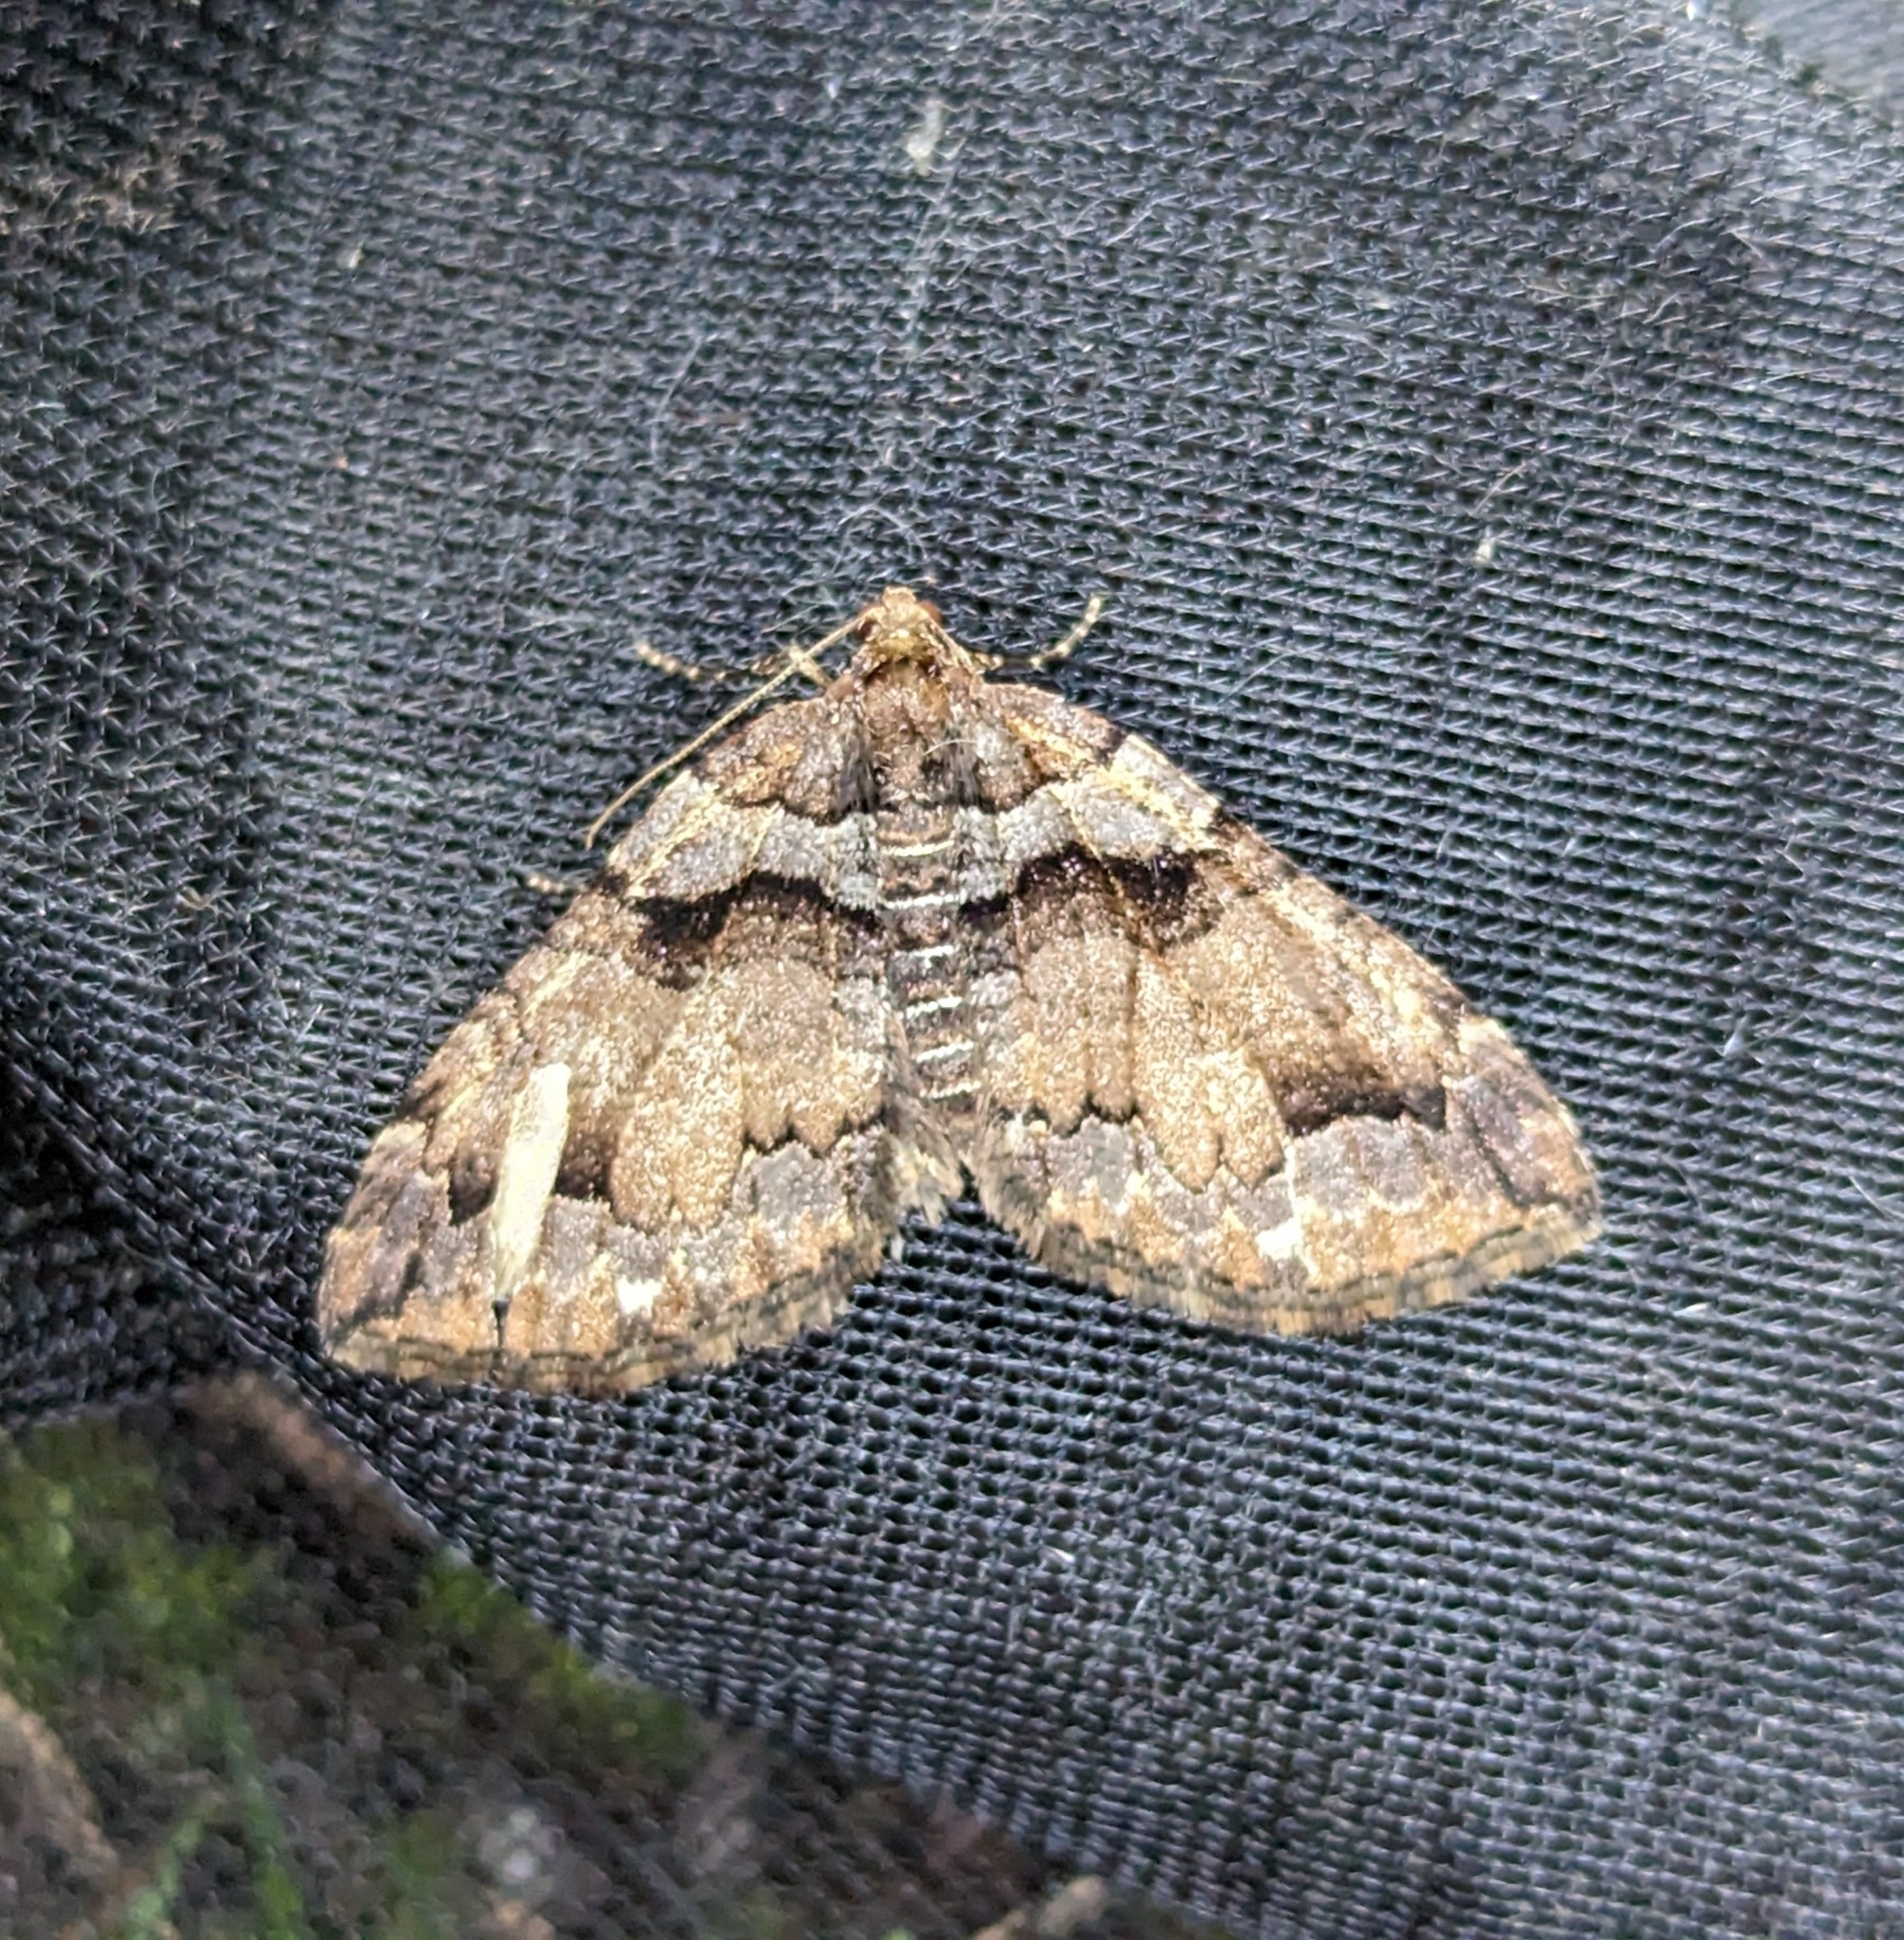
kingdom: Animalia
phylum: Arthropoda
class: Insecta
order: Lepidoptera
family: Geometridae
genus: Anticlea
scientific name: Anticlea vasiliata
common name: Variable carpet
